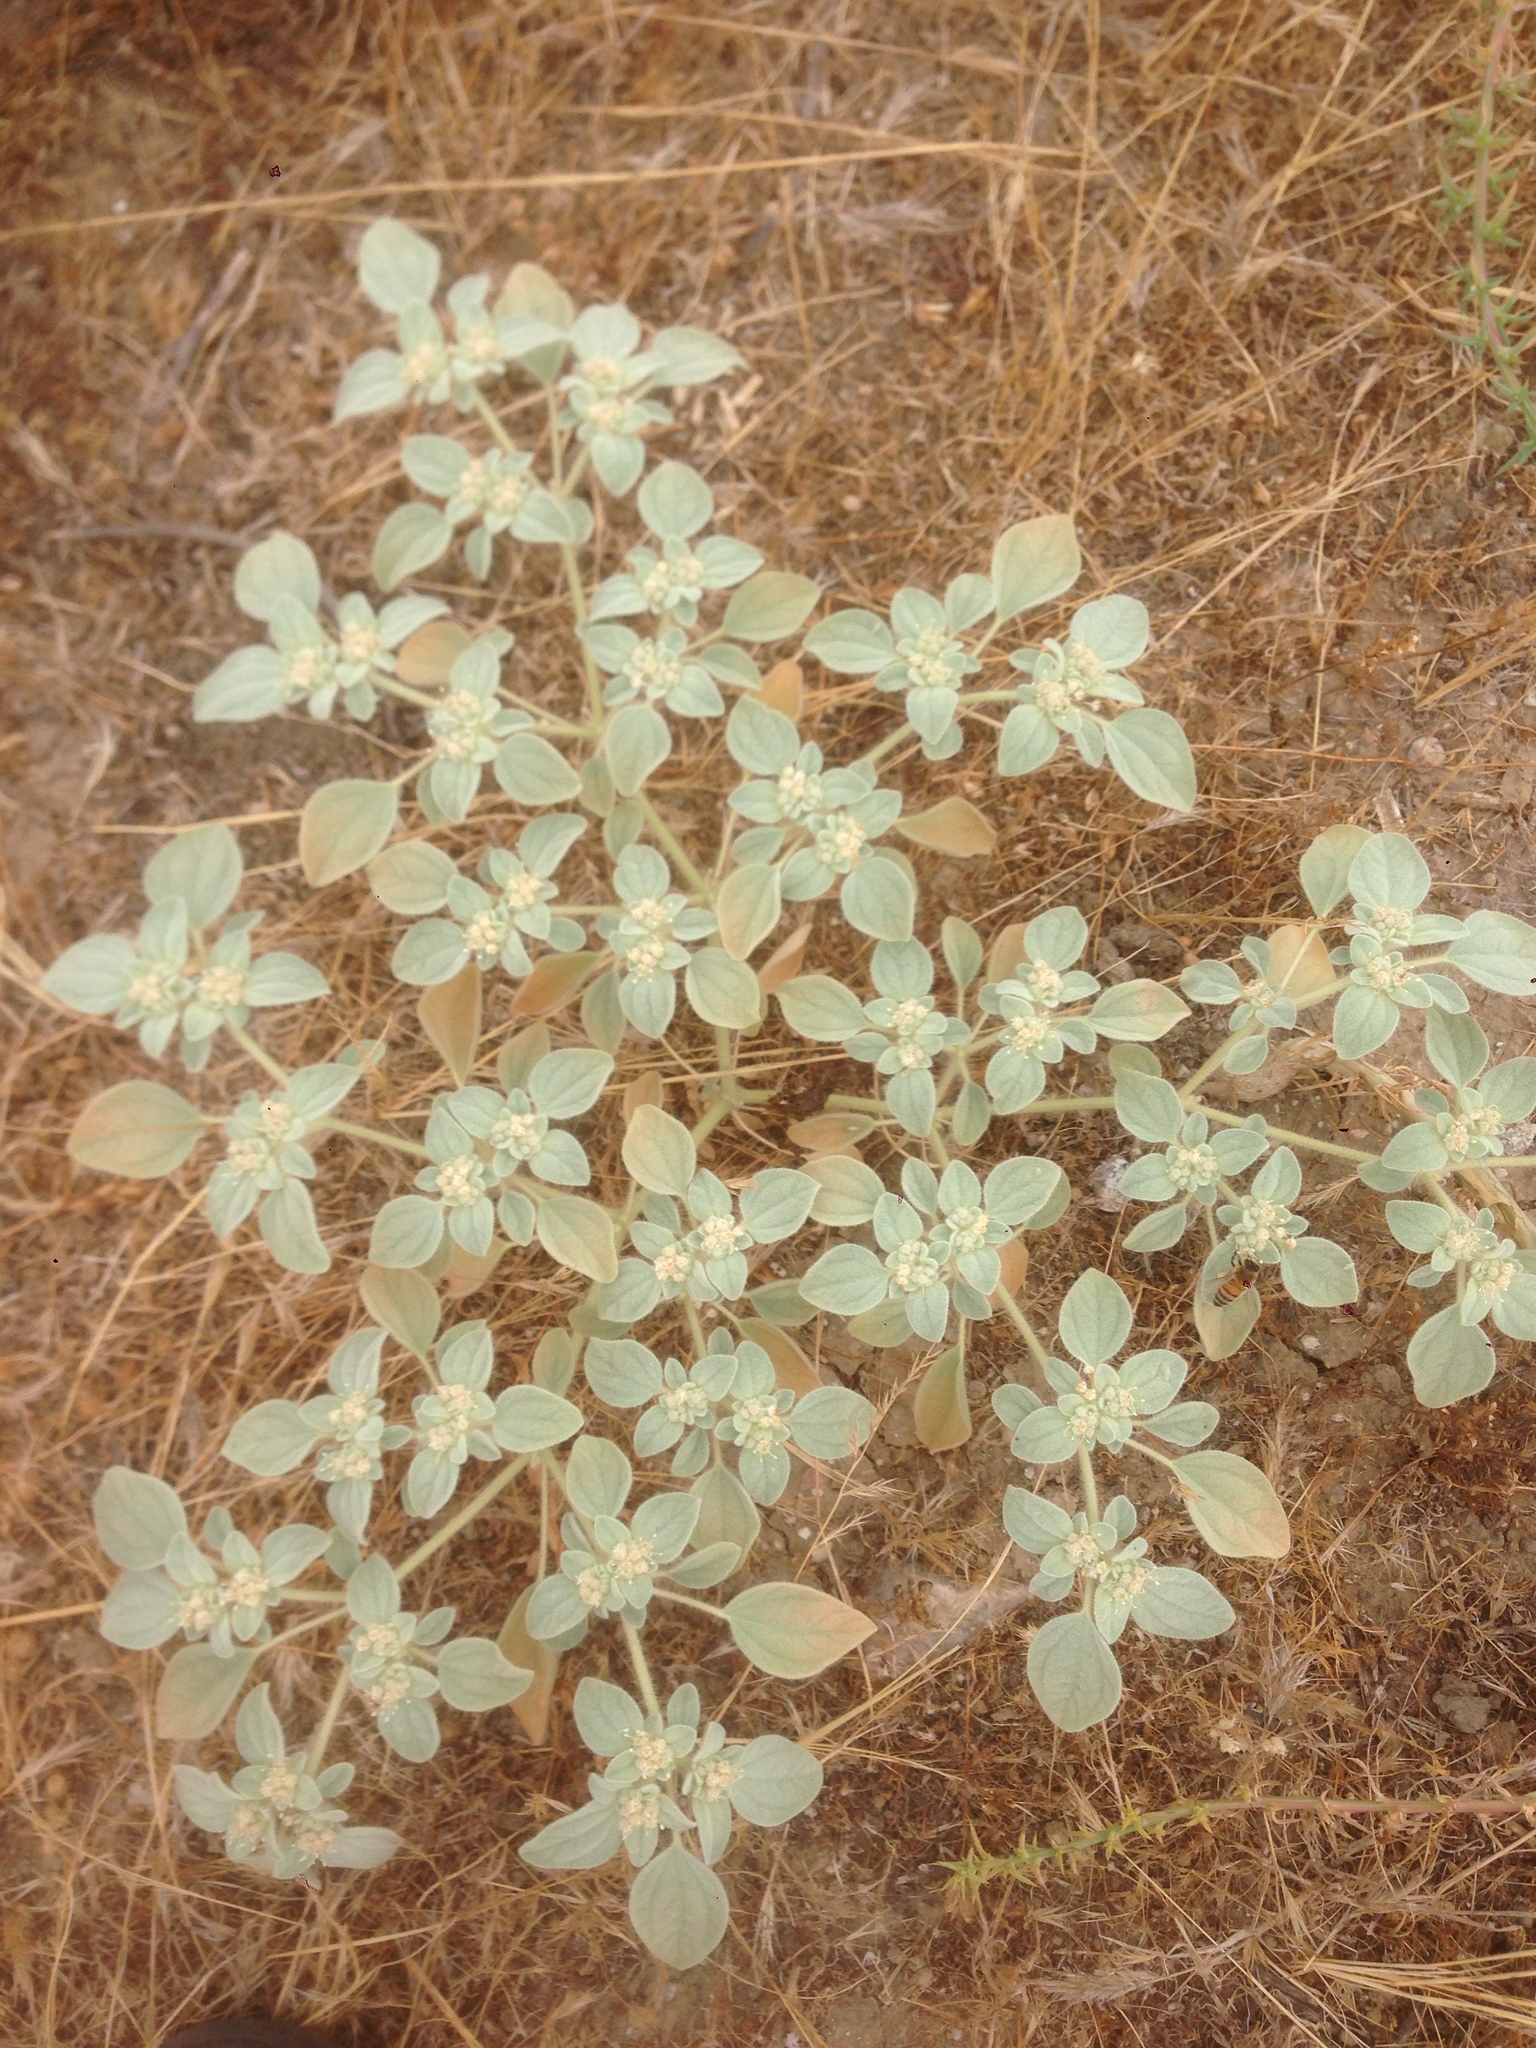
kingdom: Plantae
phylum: Tracheophyta
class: Magnoliopsida
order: Malpighiales
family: Euphorbiaceae
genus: Croton
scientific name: Croton setiger
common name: Dove weed
